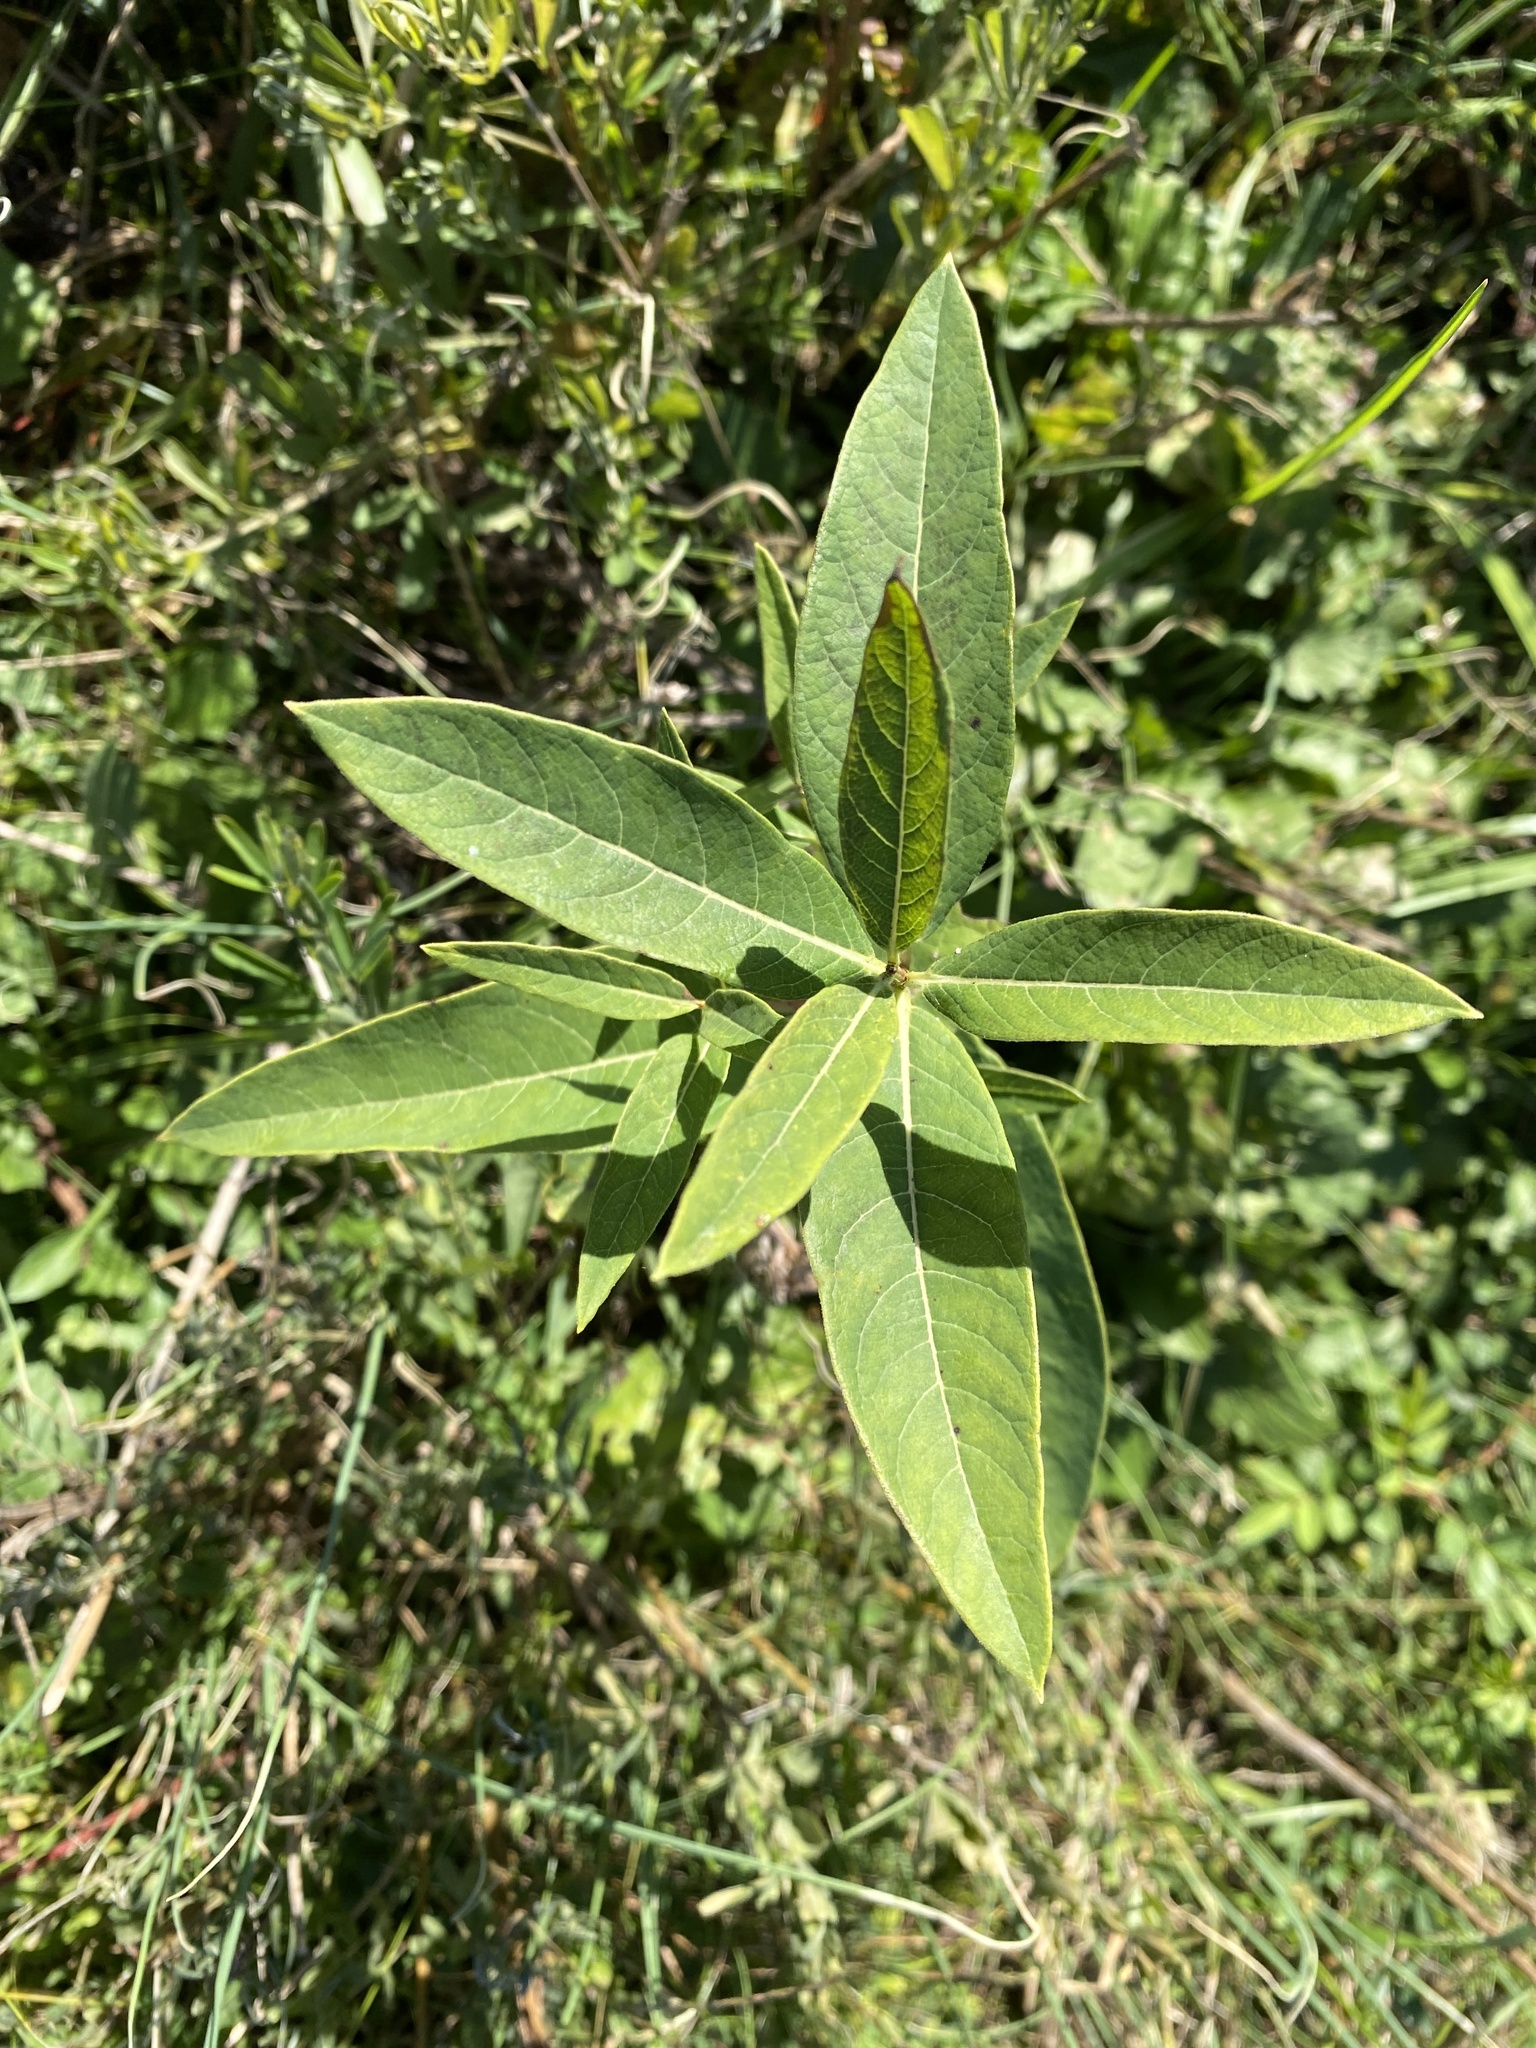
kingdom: Plantae
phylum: Tracheophyta
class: Magnoliopsida
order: Gentianales
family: Apocynaceae
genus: Apocynum
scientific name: Apocynum cannabinum
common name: Hemp dogbane
